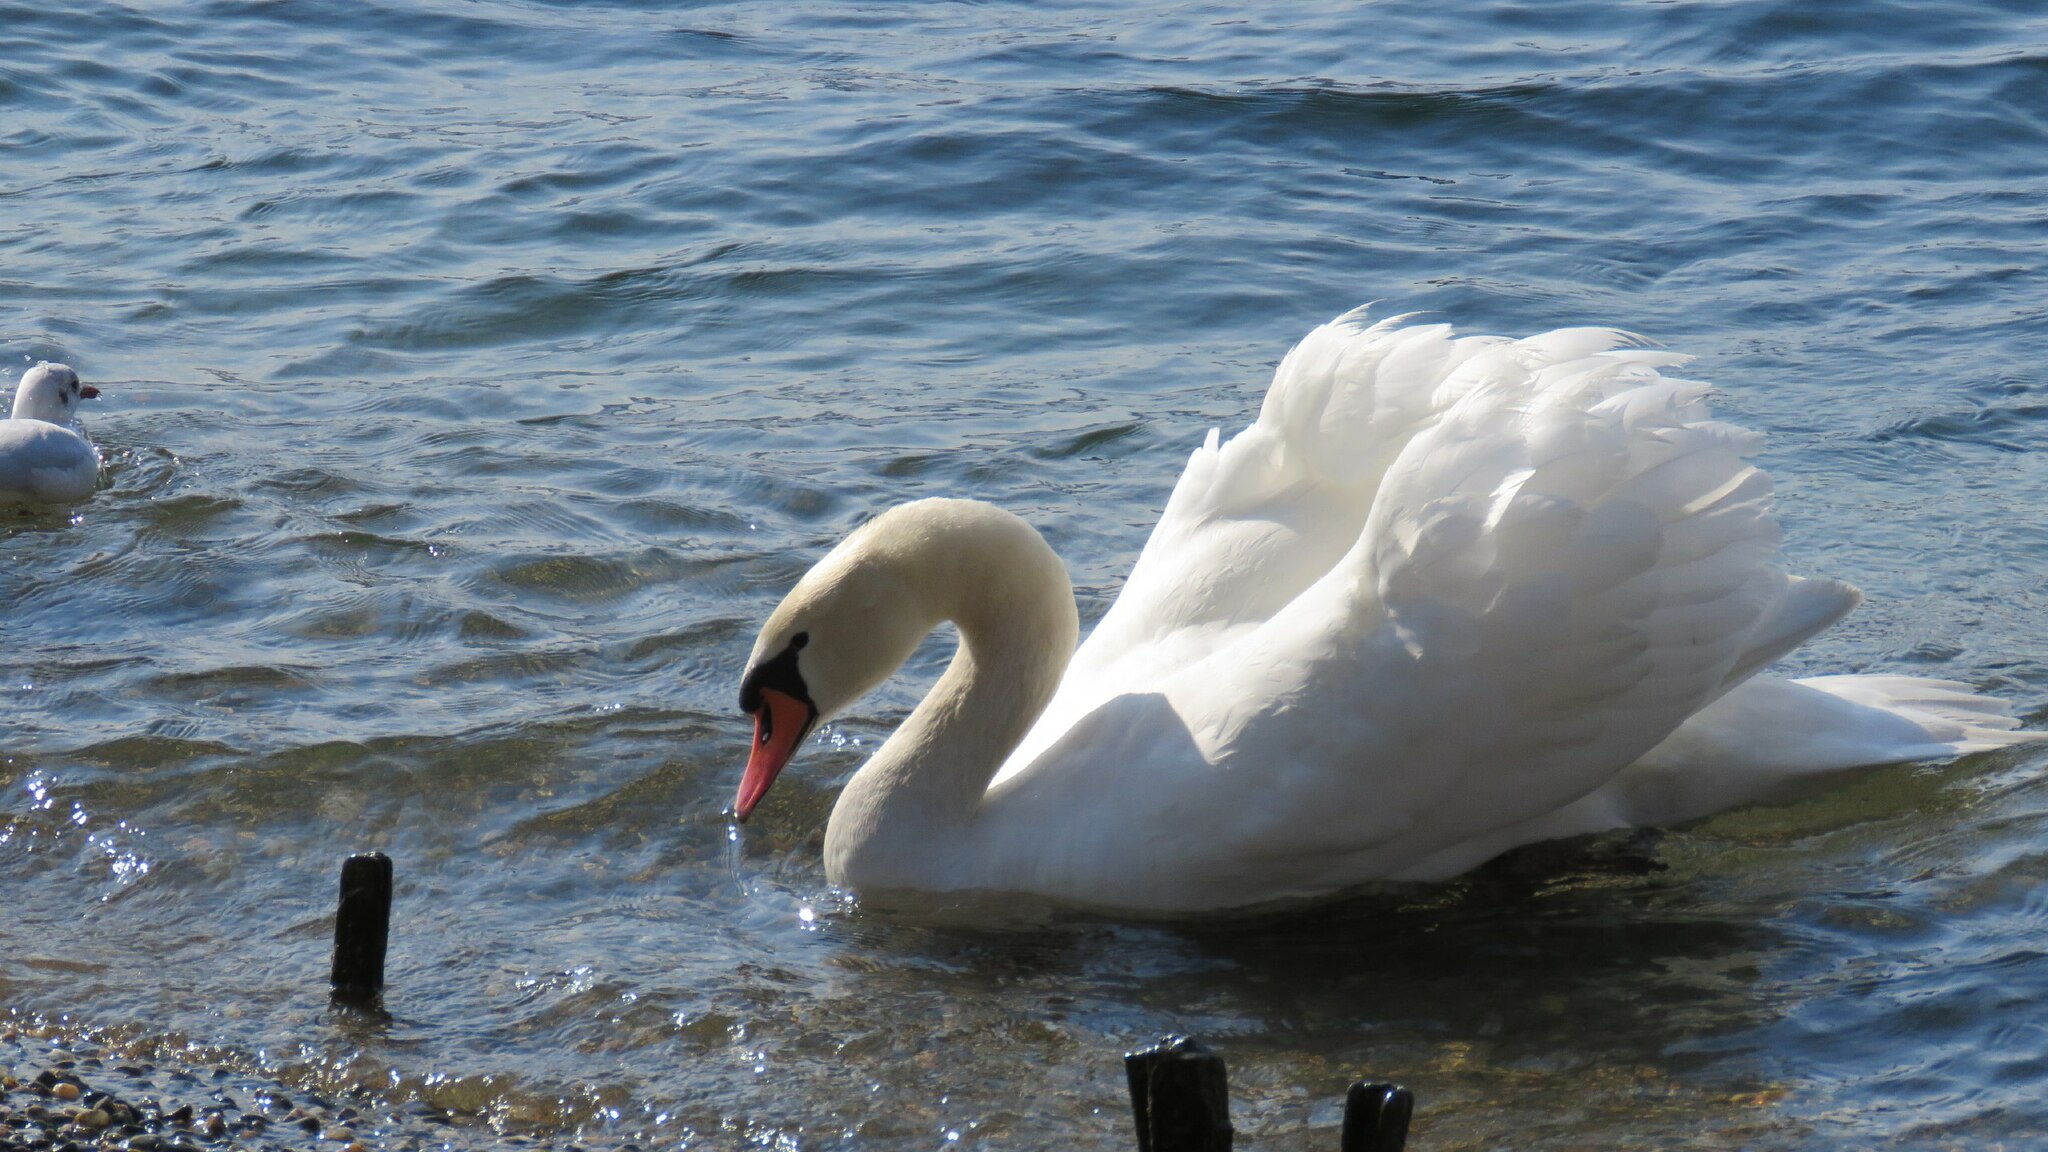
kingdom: Animalia
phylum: Chordata
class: Aves
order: Anseriformes
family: Anatidae
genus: Cygnus
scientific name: Cygnus olor
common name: Mute swan
